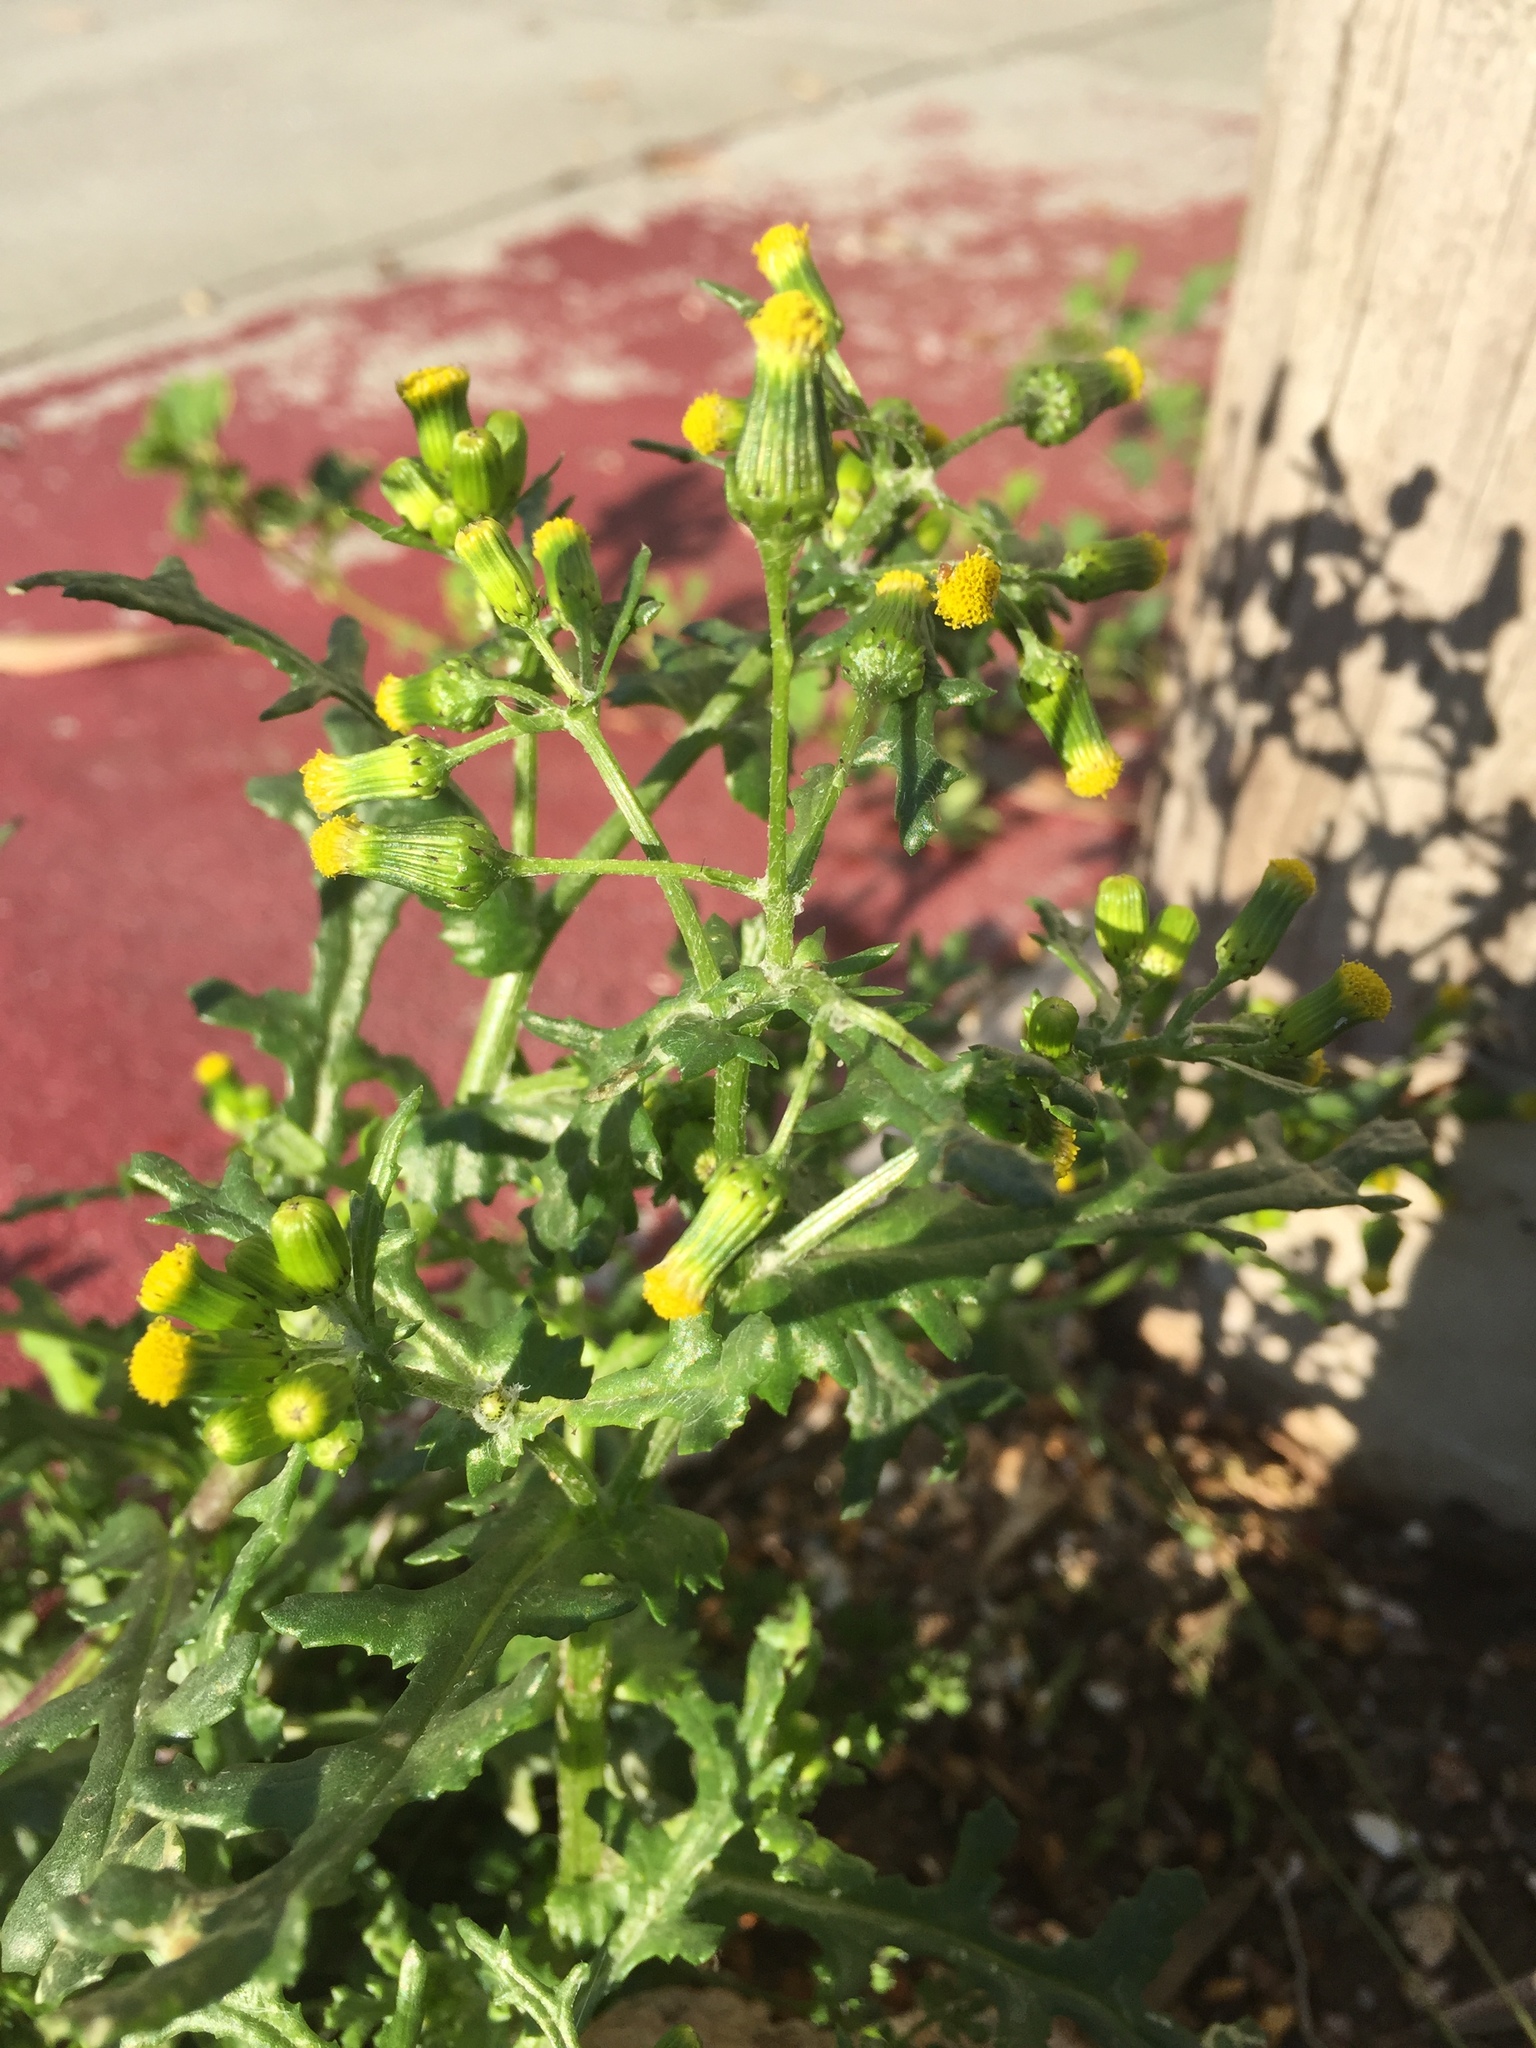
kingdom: Plantae
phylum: Tracheophyta
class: Magnoliopsida
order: Asterales
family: Asteraceae
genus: Senecio
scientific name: Senecio vulgaris
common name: Old-man-in-the-spring
